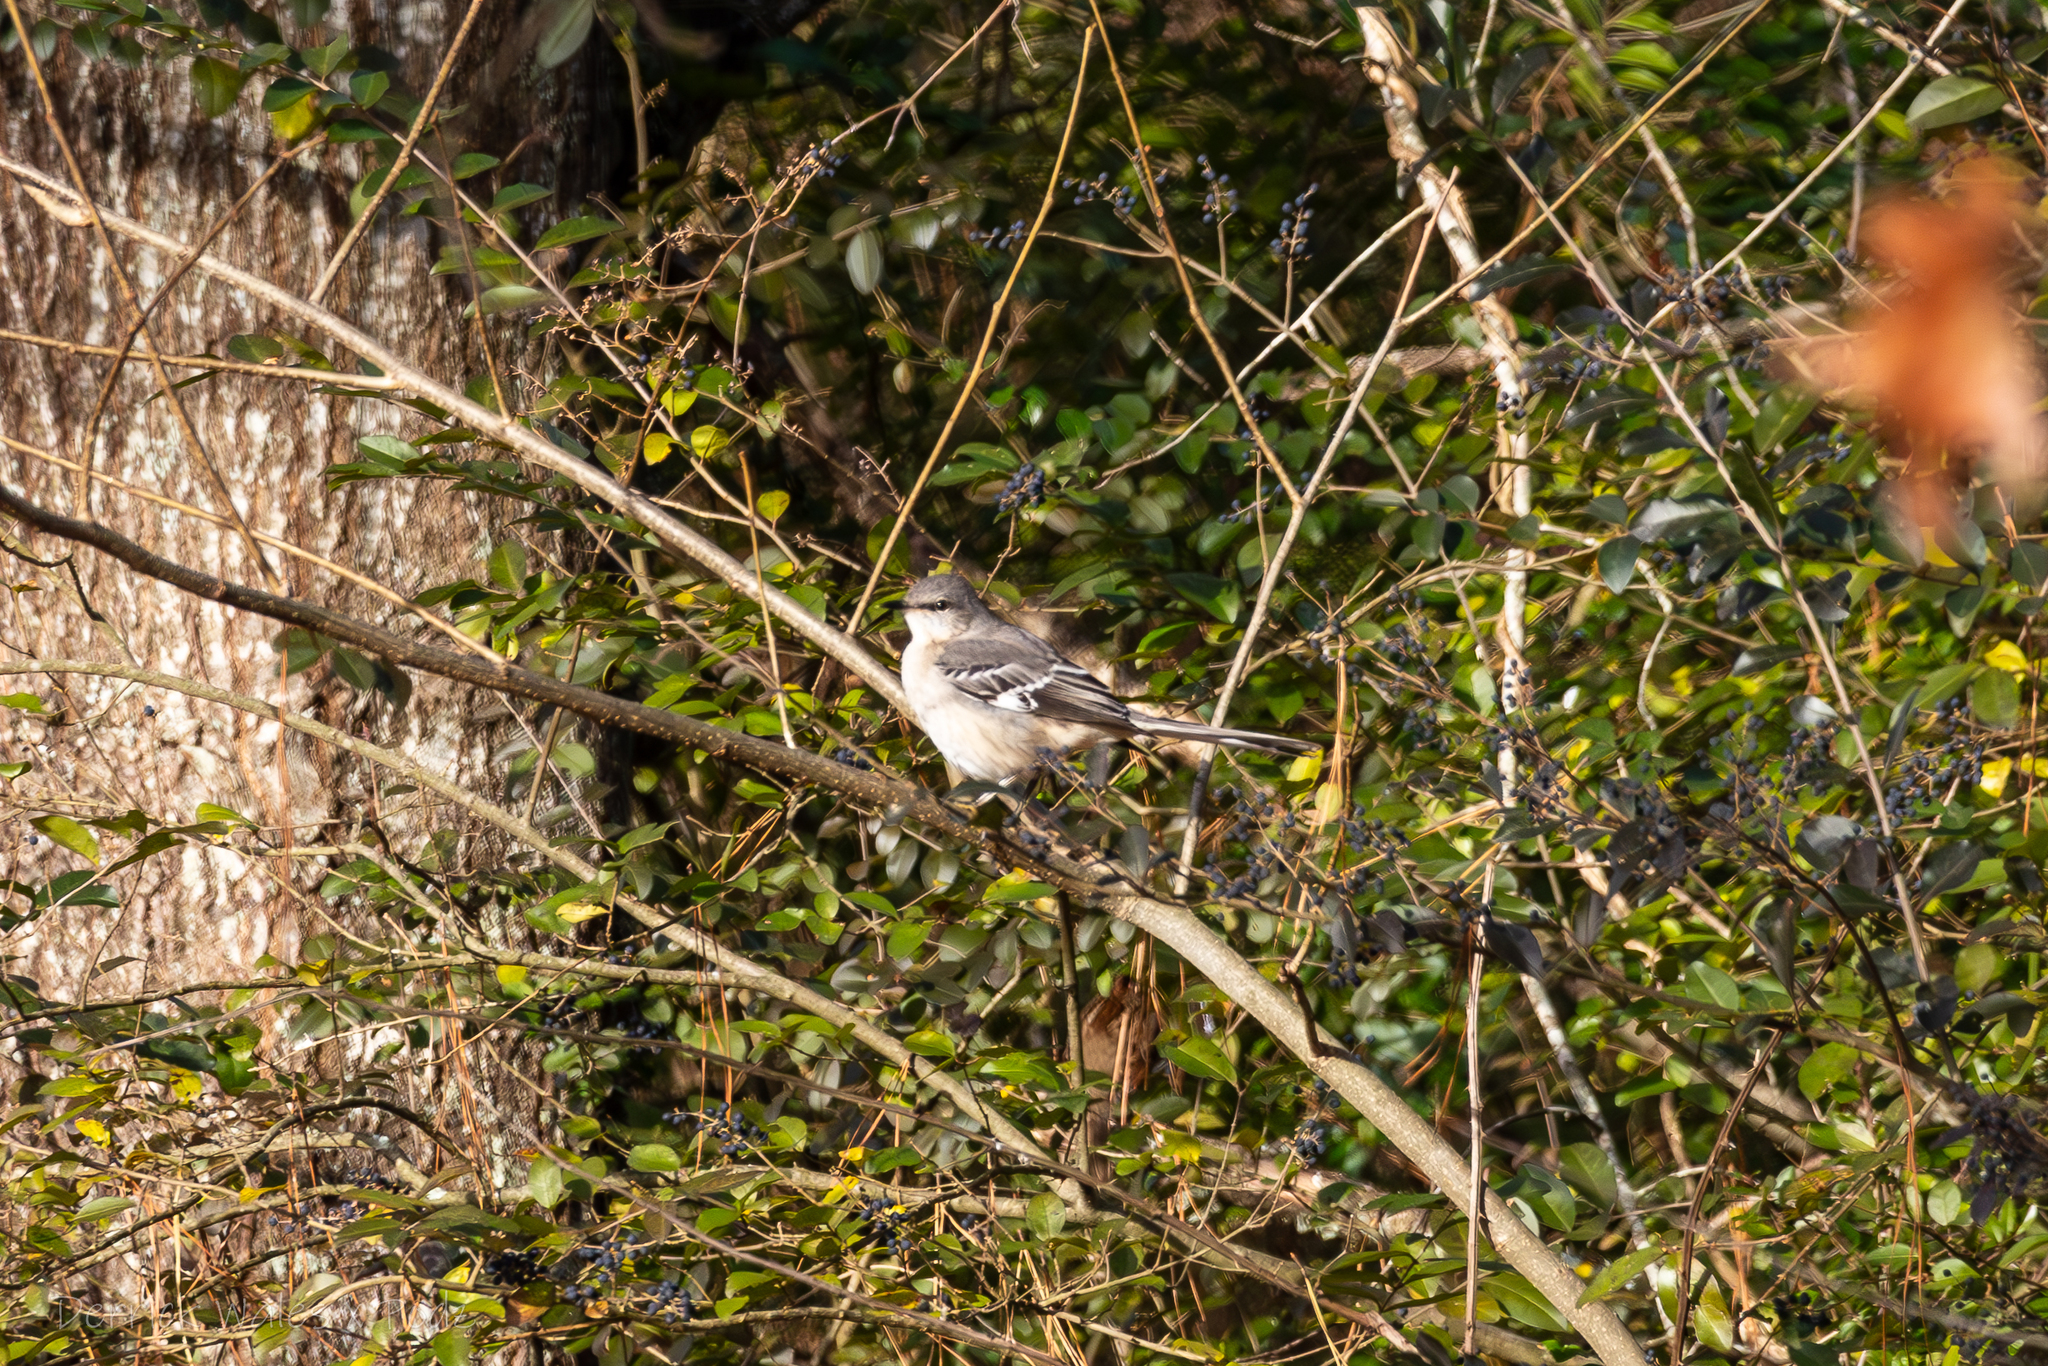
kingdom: Animalia
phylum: Chordata
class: Aves
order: Passeriformes
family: Mimidae
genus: Mimus
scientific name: Mimus polyglottos
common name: Northern mockingbird
